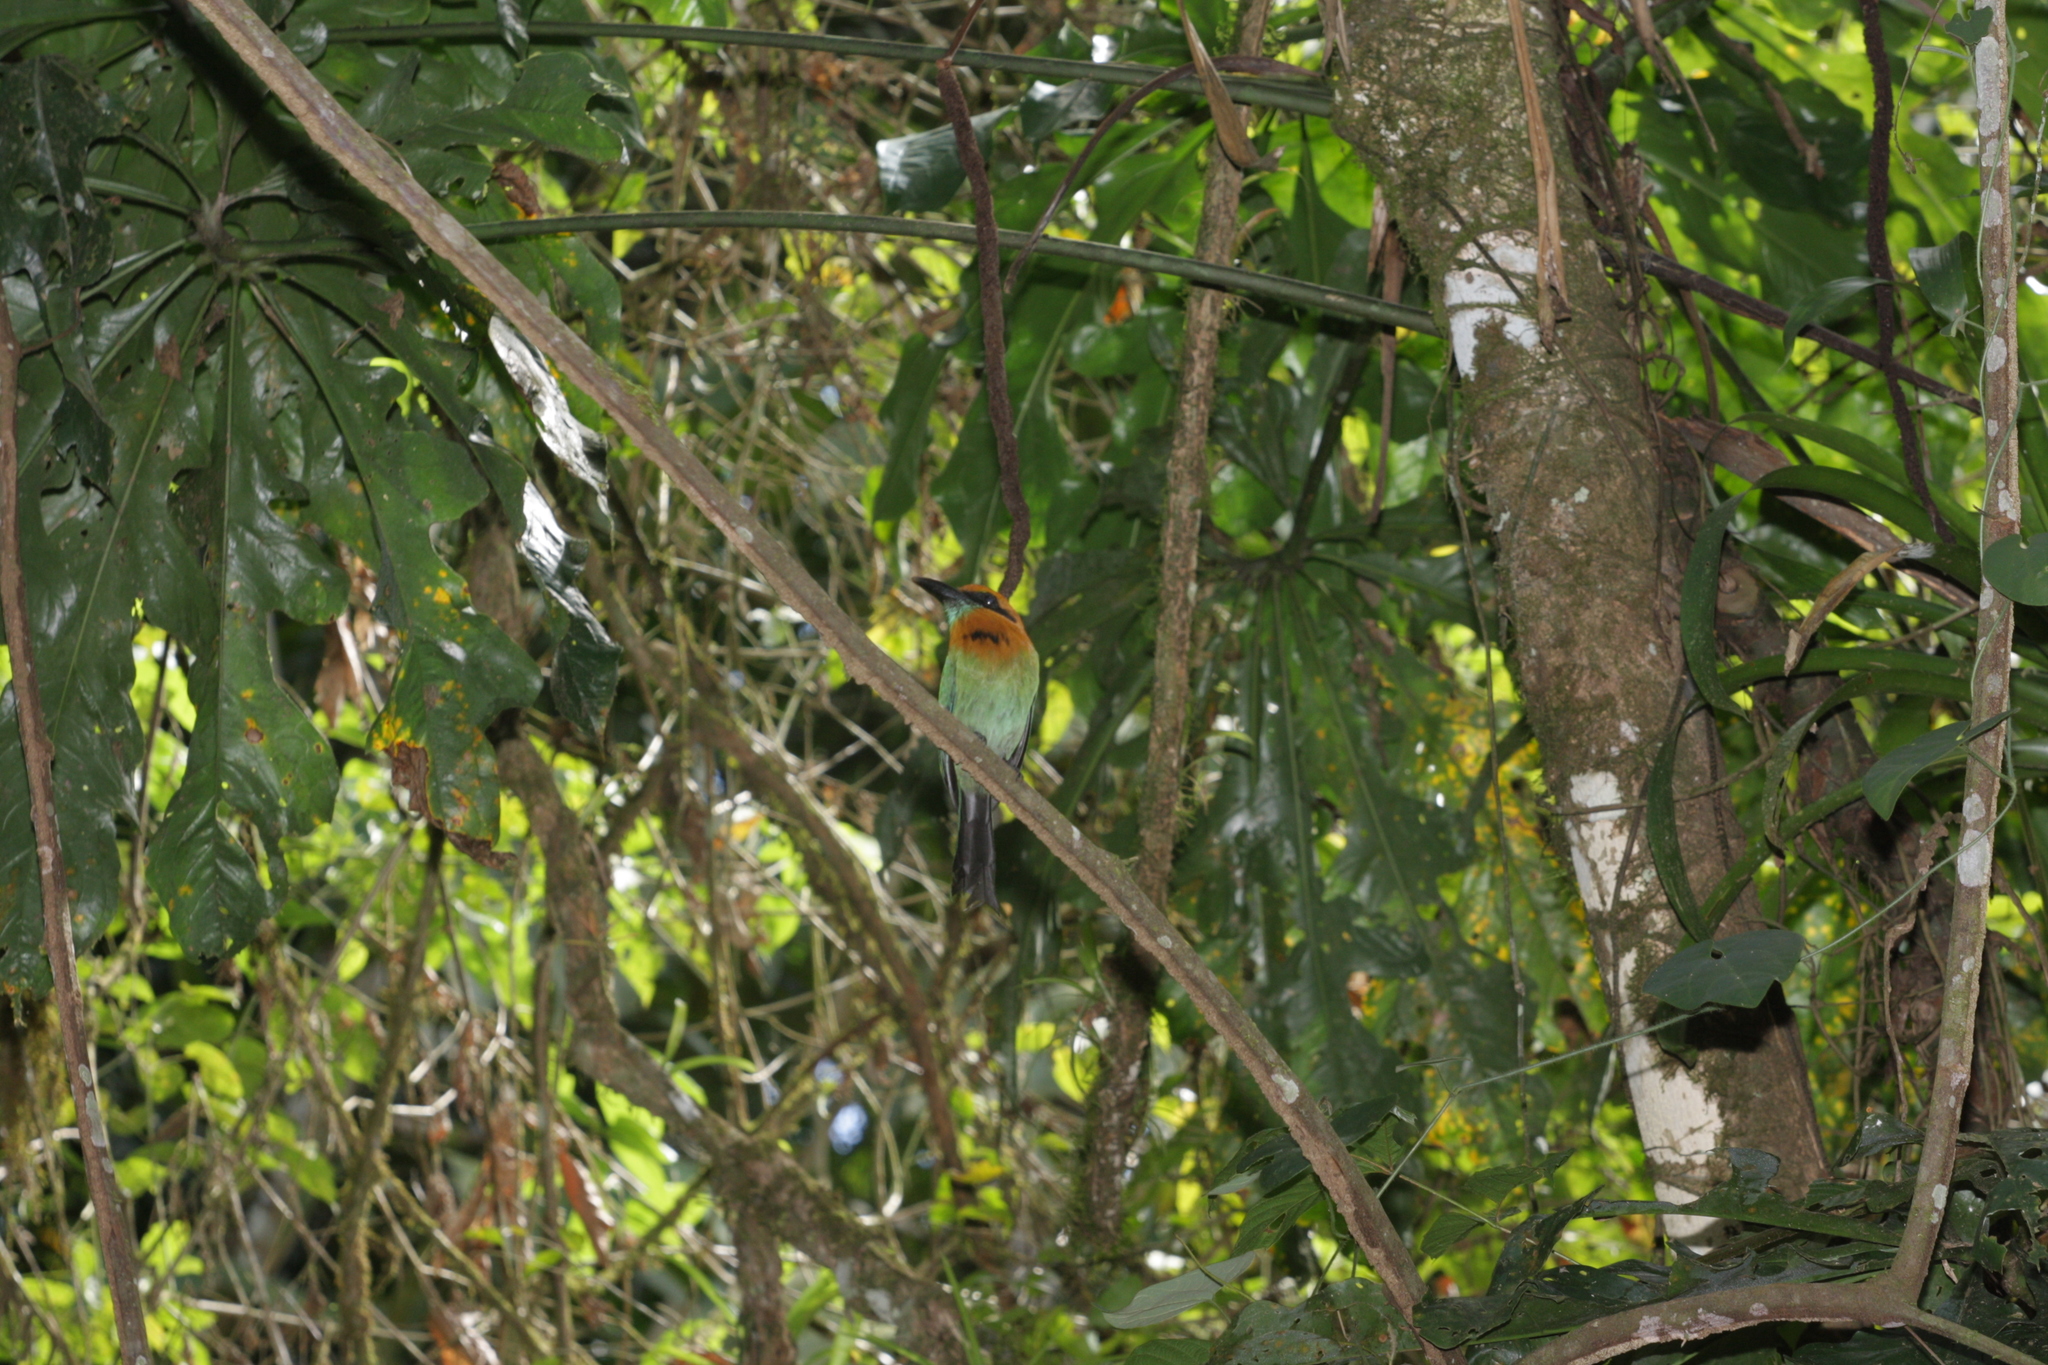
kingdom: Animalia
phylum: Chordata
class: Aves
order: Coraciiformes
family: Momotidae
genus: Electron
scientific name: Electron platyrhynchum
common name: Broad-billed motmot
